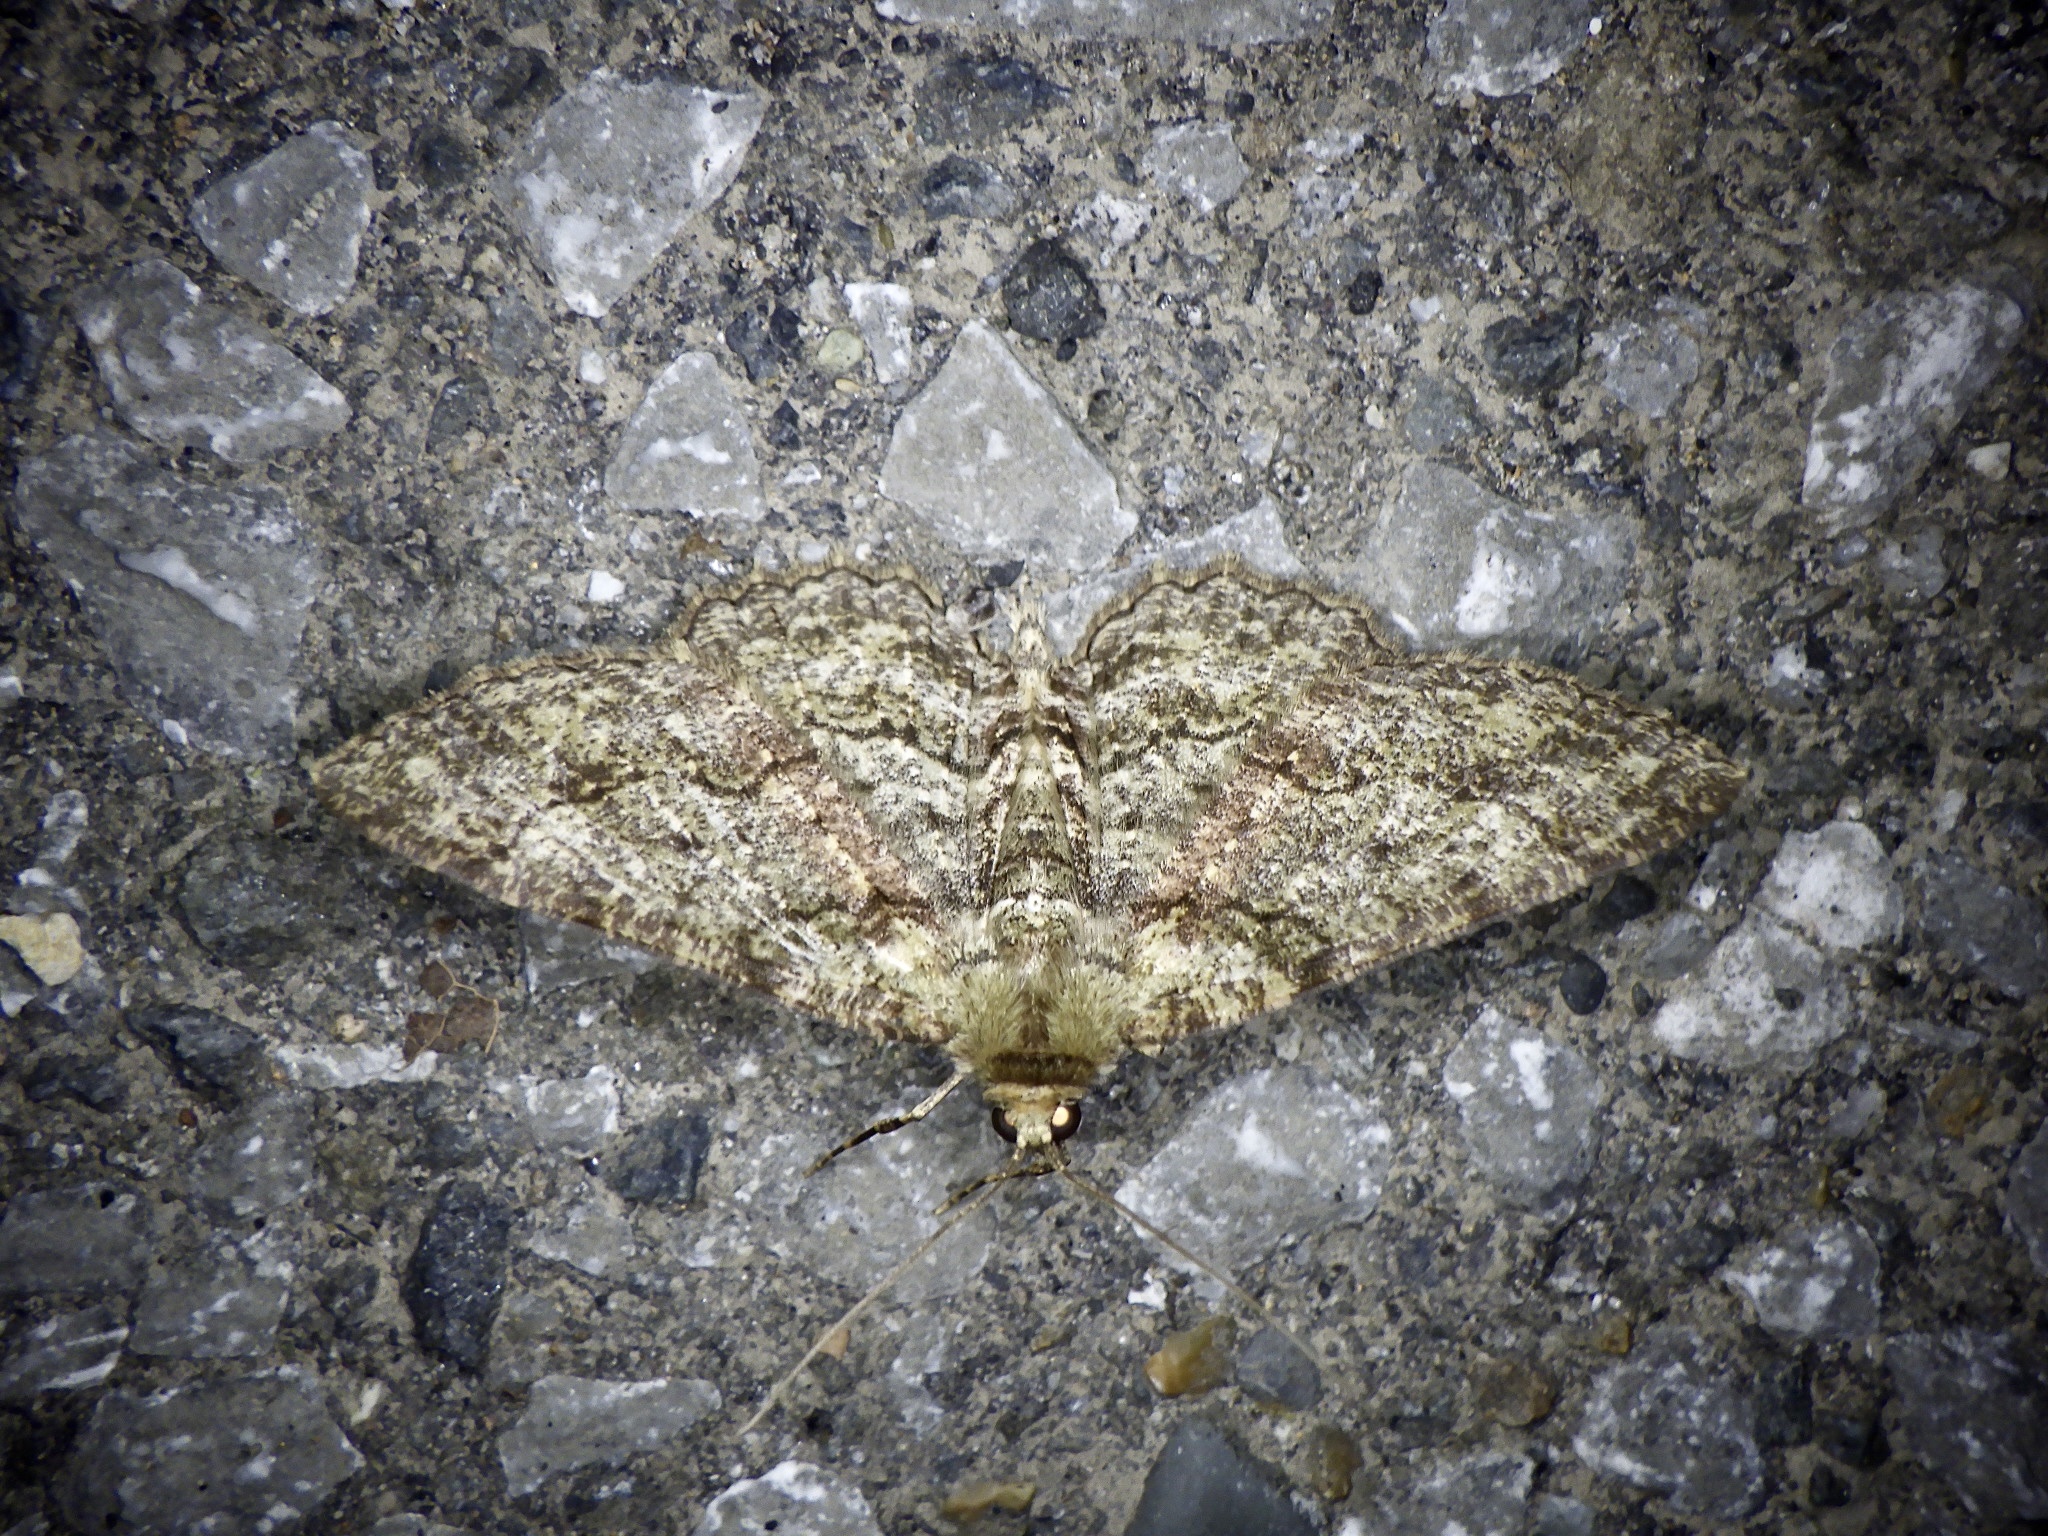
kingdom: Animalia
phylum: Arthropoda
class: Insecta
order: Lepidoptera
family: Geometridae
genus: Paradarisa
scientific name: Paradarisa chloauges
